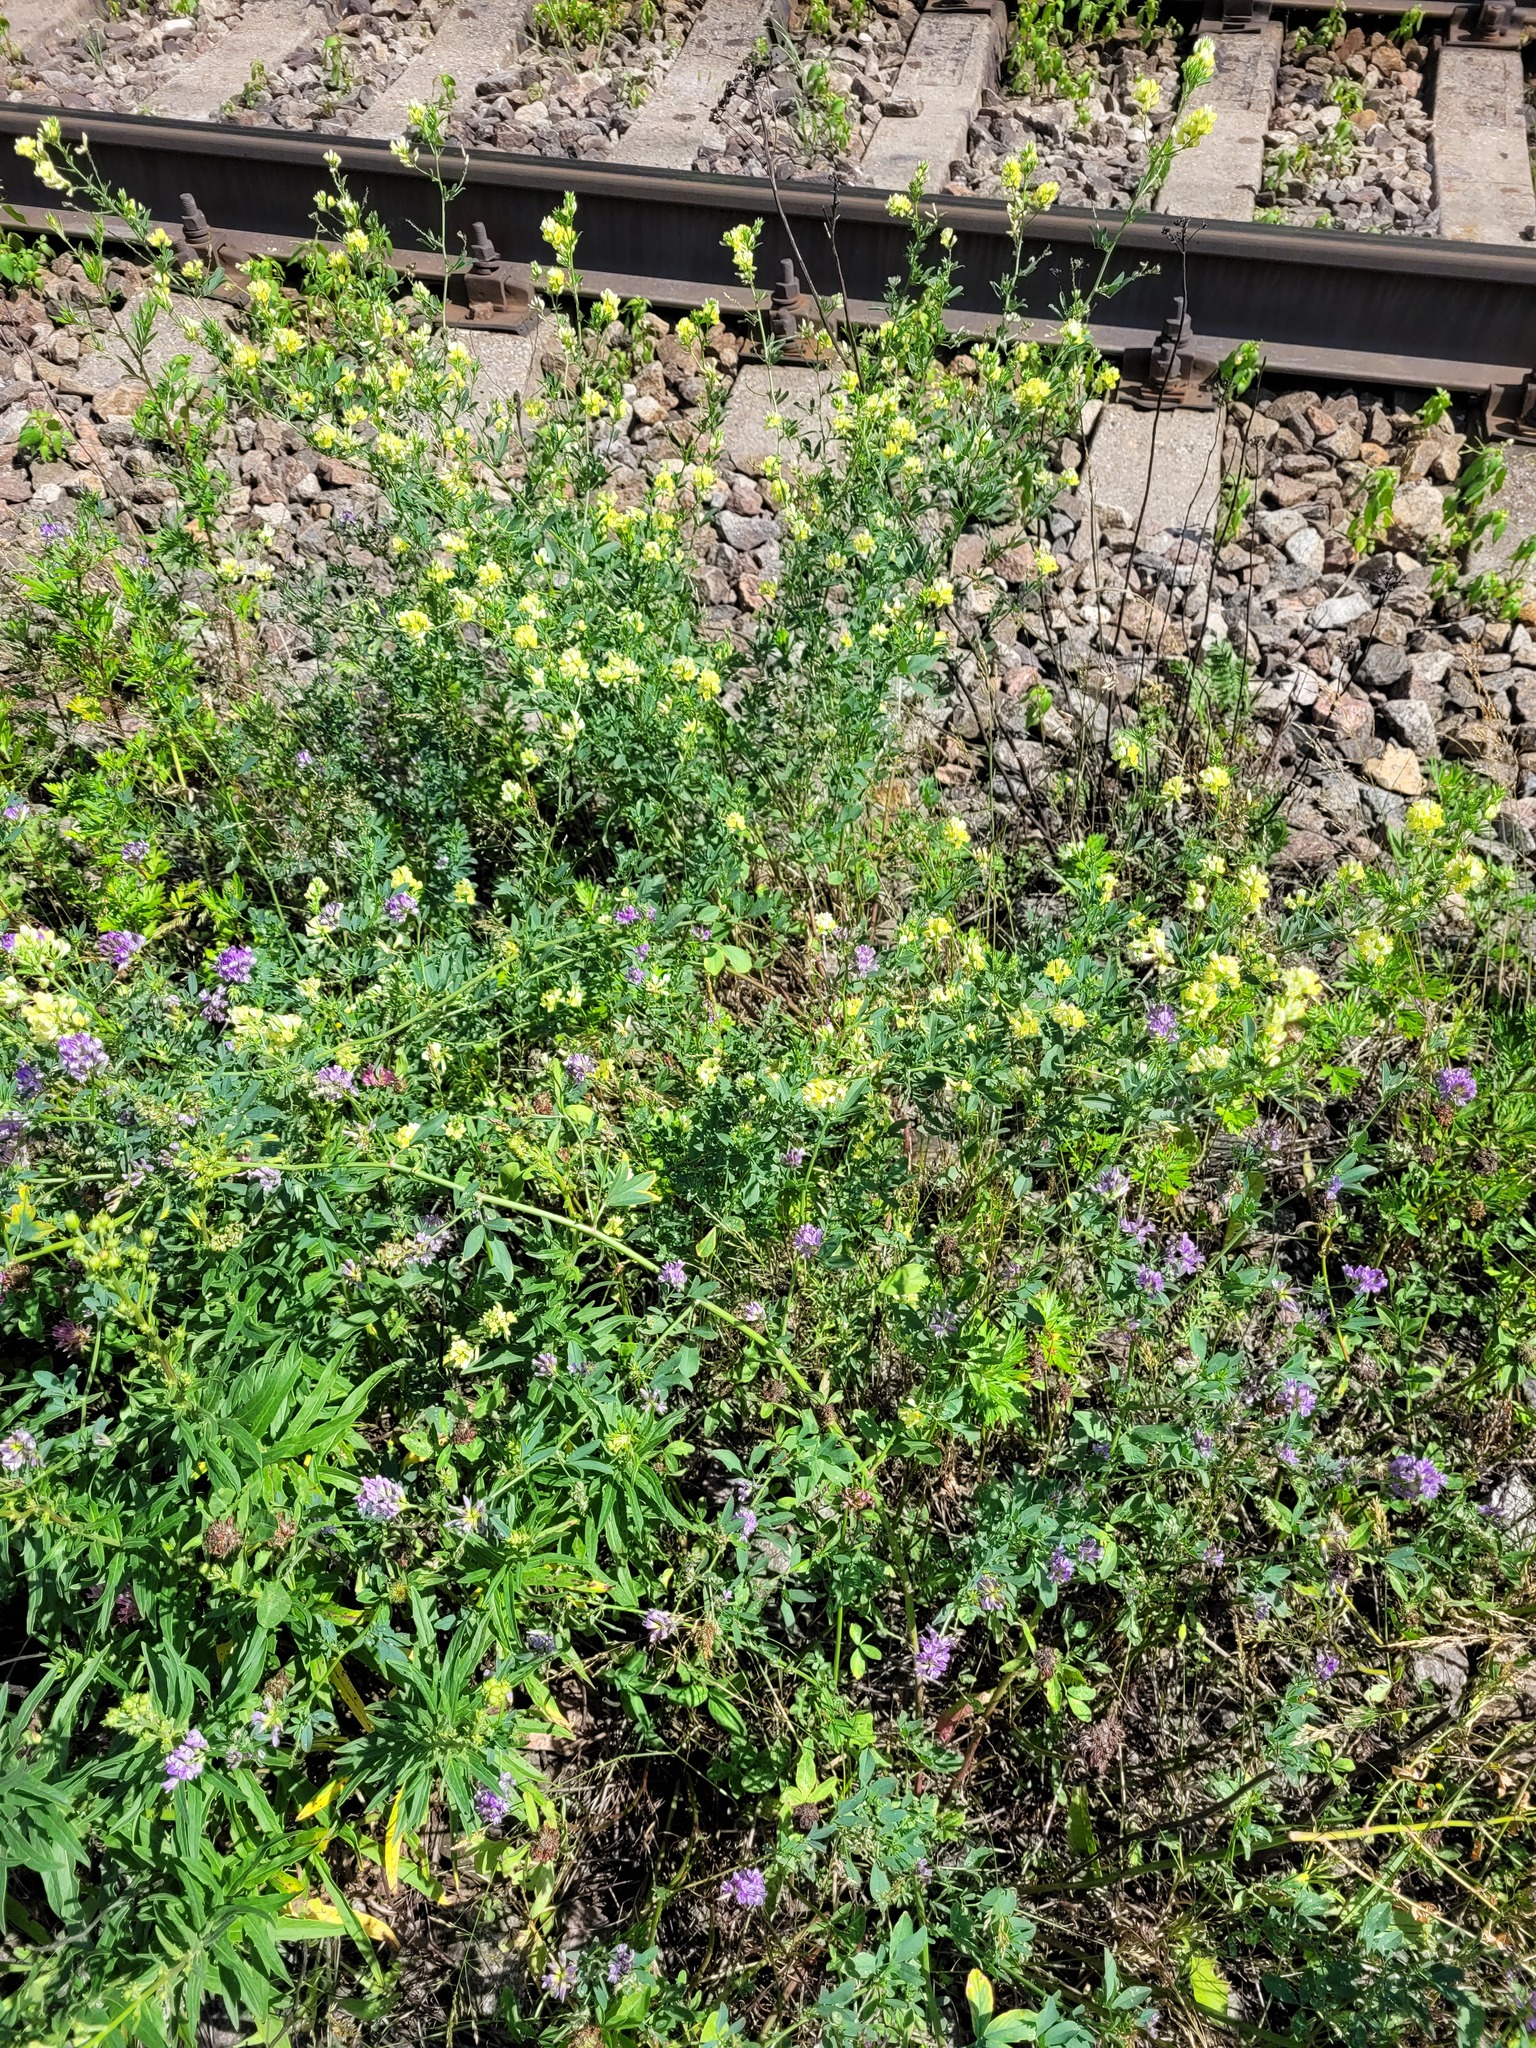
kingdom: Plantae
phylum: Tracheophyta
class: Magnoliopsida
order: Fabales
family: Fabaceae
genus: Medicago
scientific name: Medicago varia
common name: Sand lucerne
